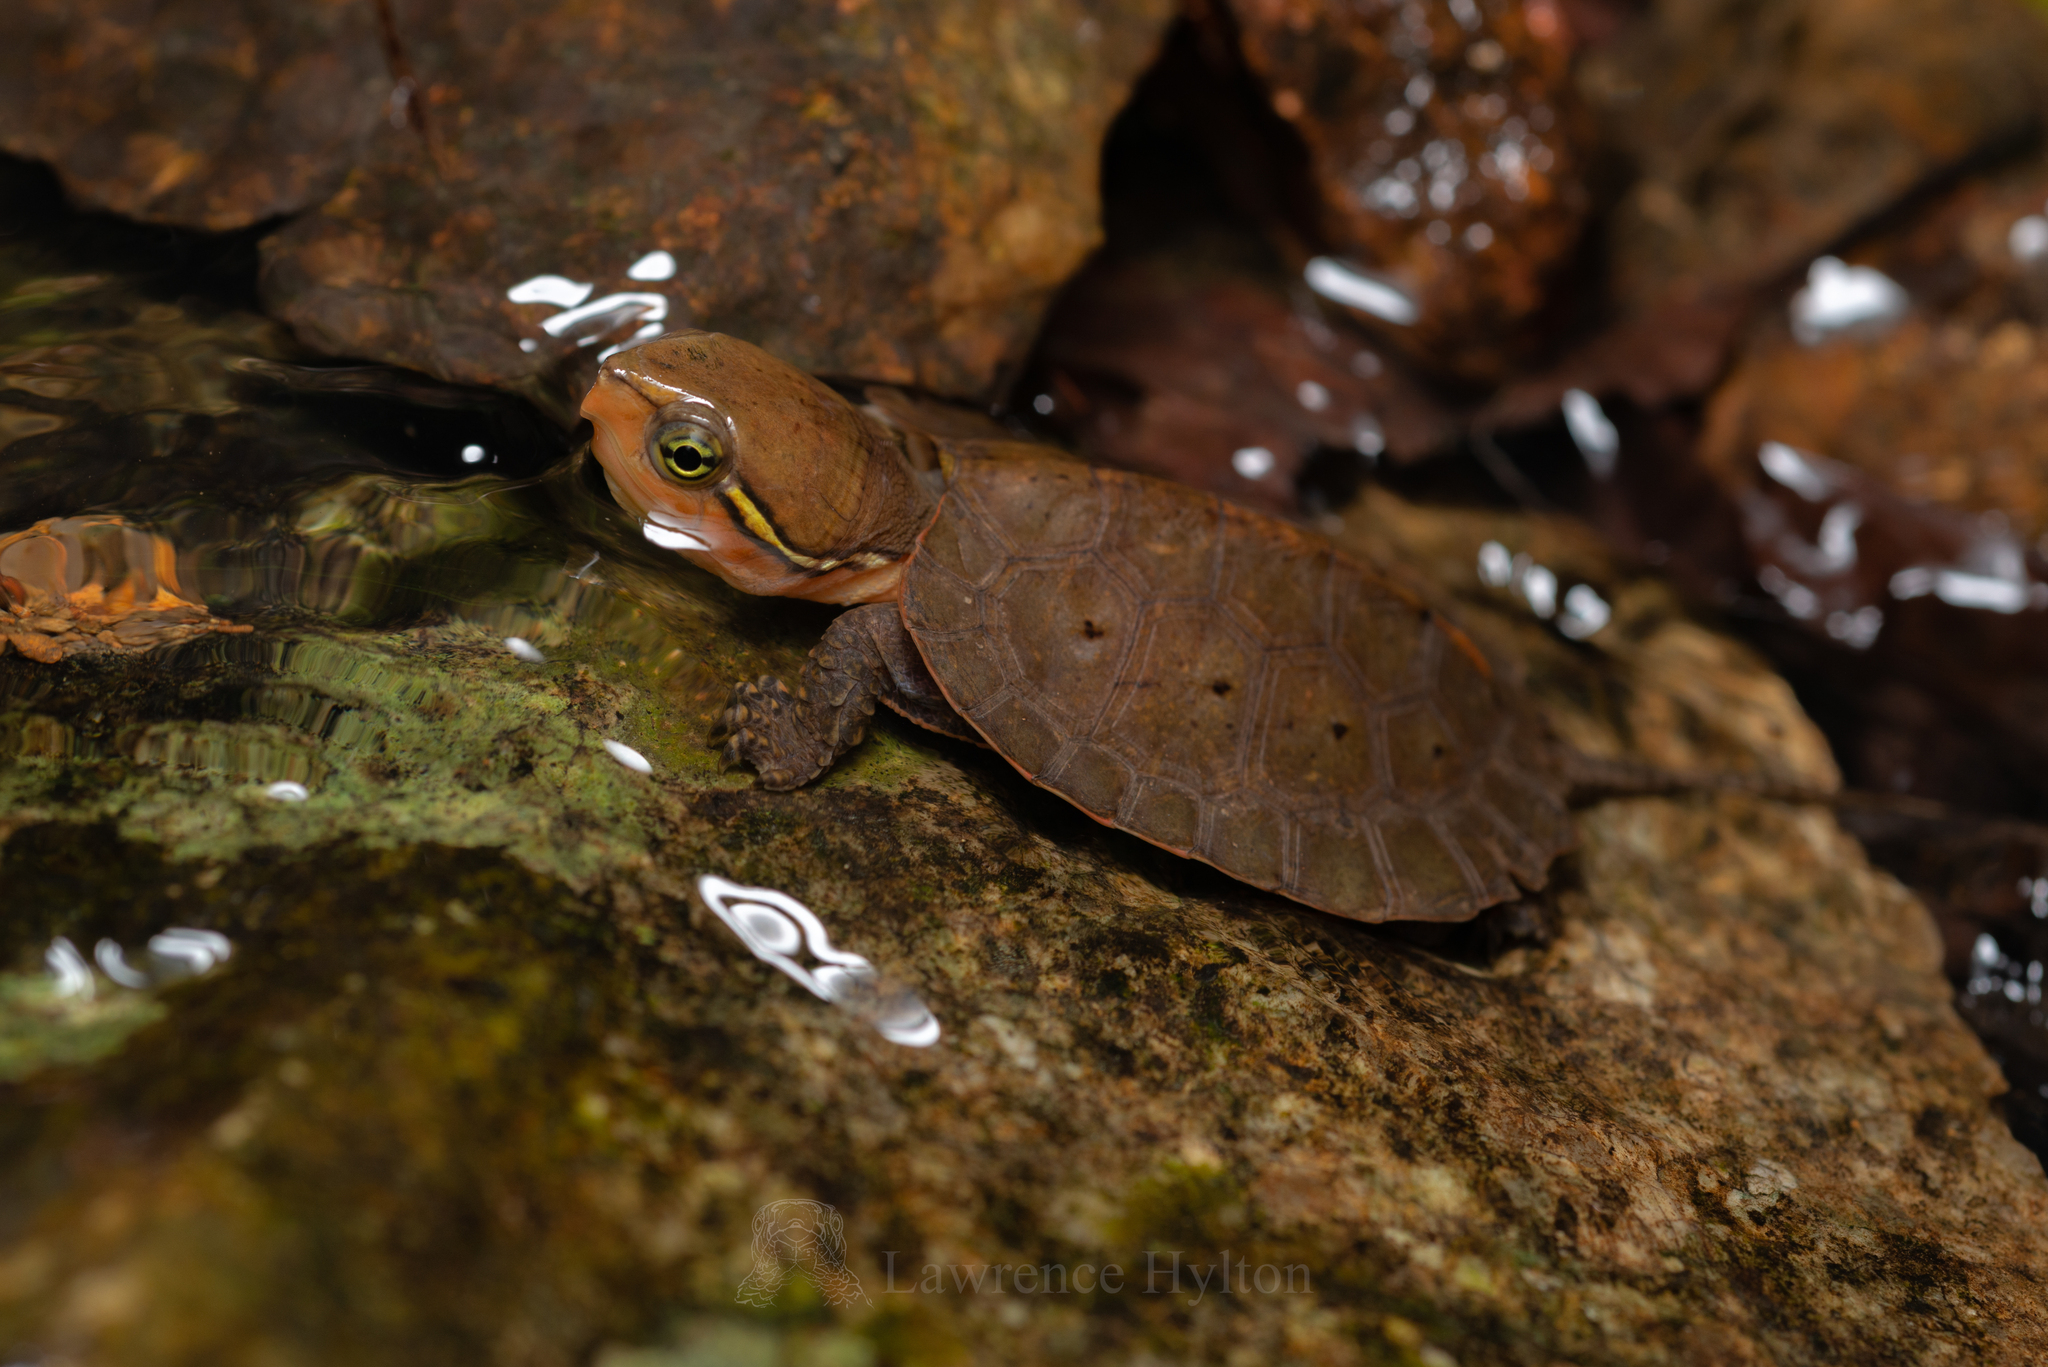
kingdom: Animalia
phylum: Chordata
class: Testudines
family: Platysternidae
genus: Platysternon
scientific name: Platysternon megacephalum
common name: Big-headed turtle
